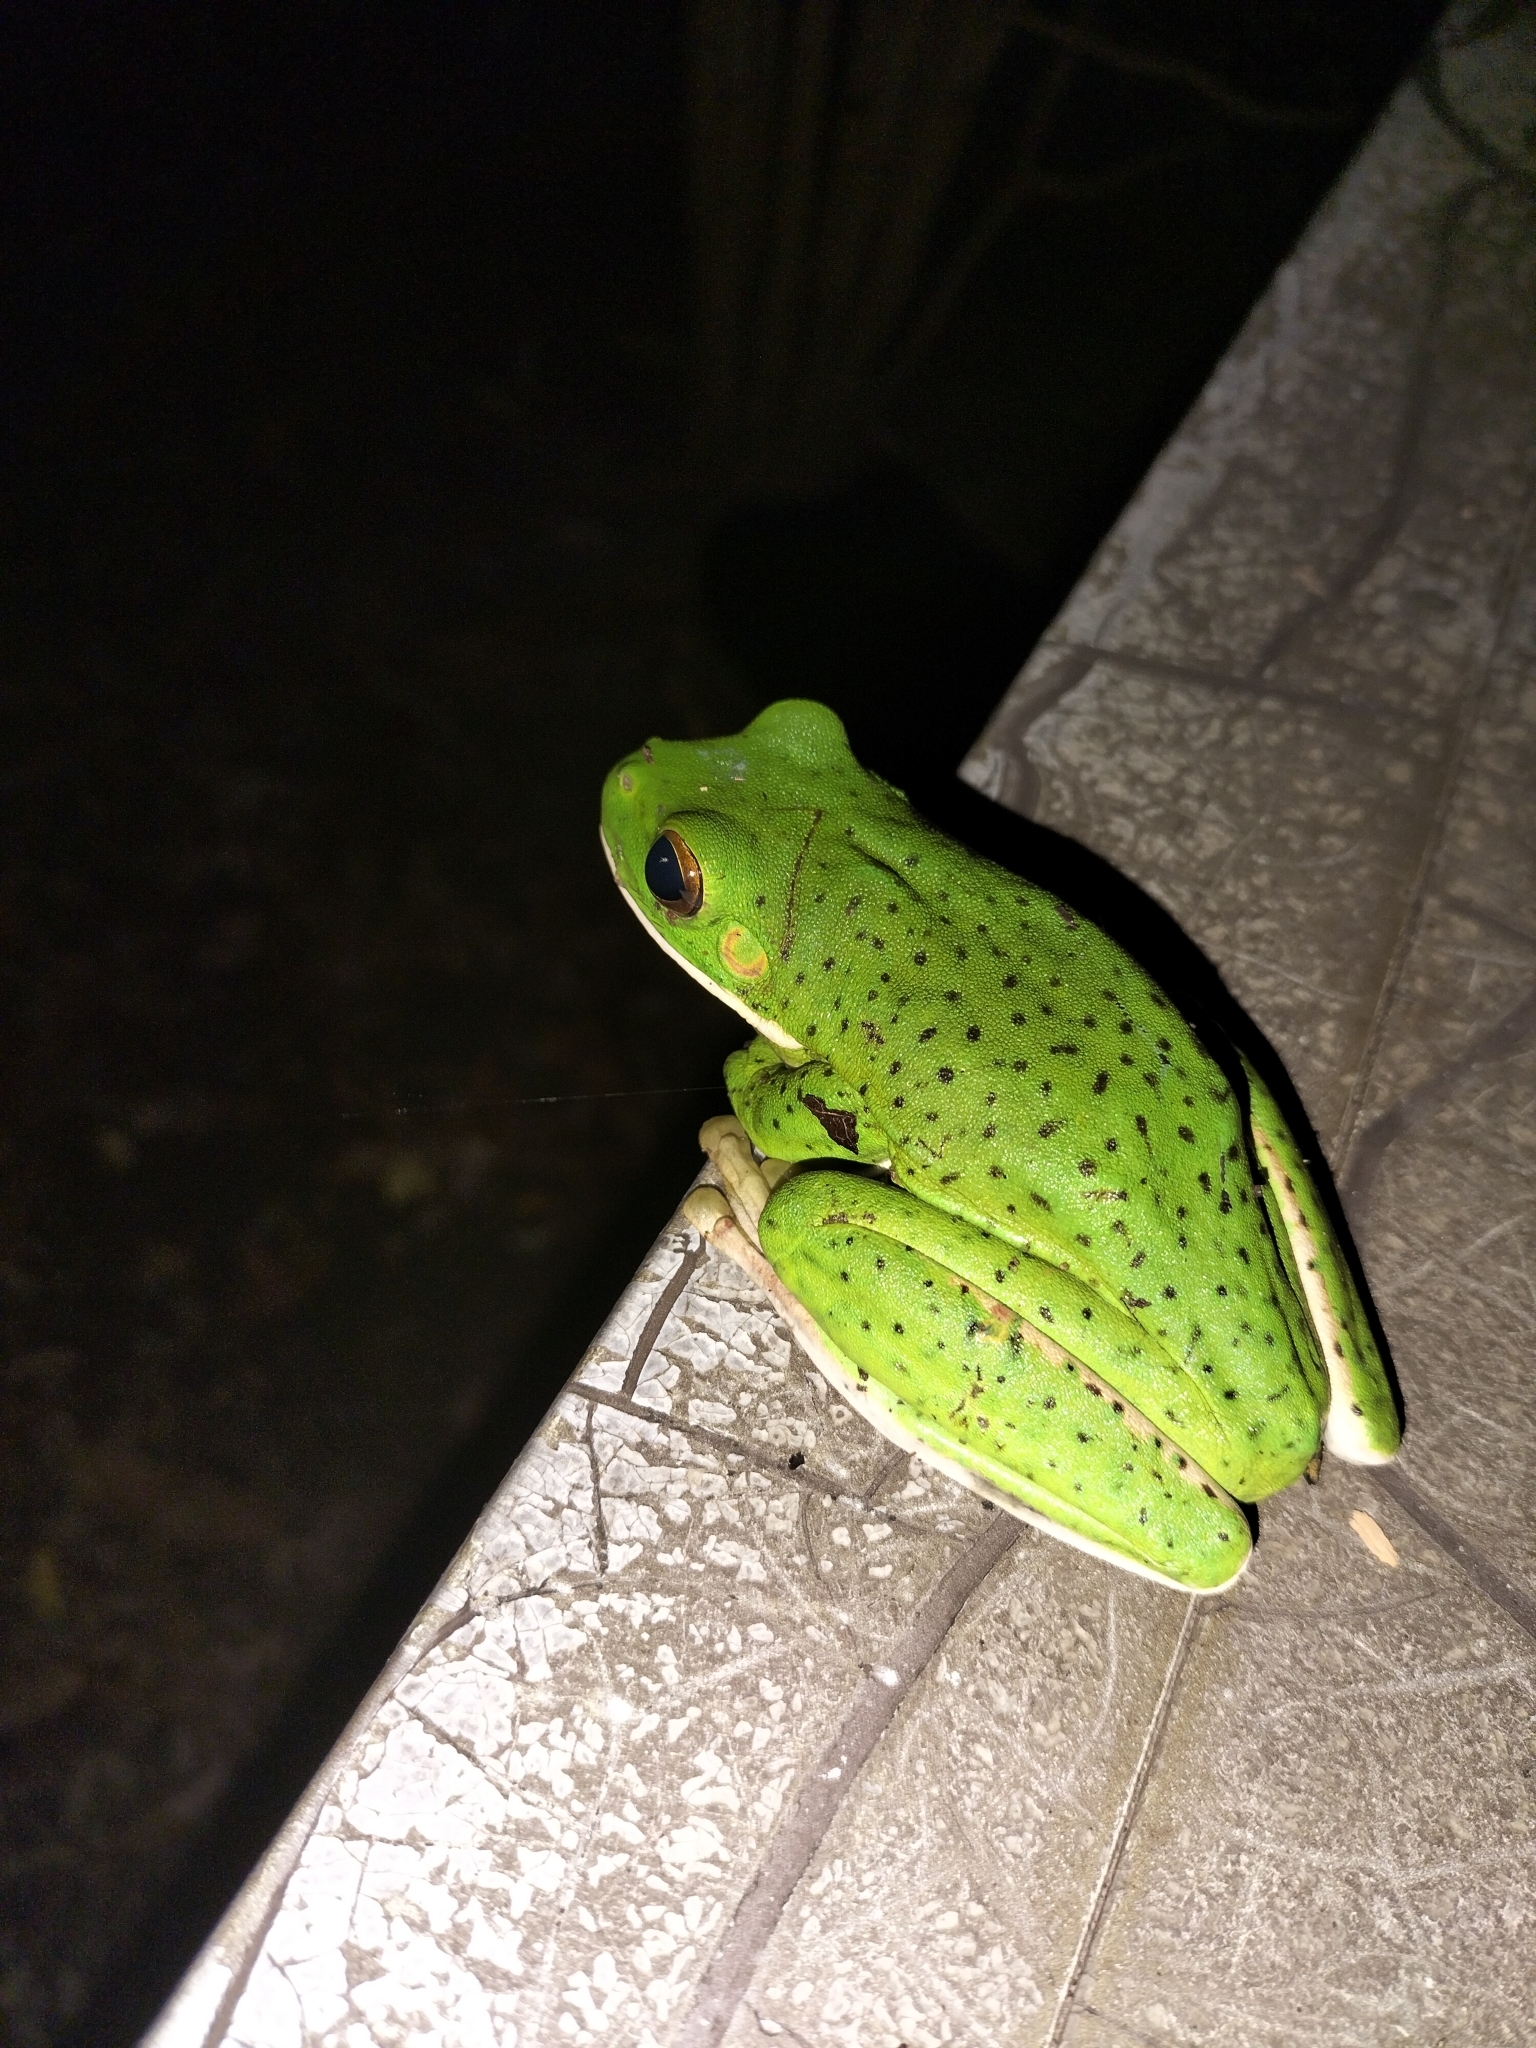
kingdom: Animalia
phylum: Chordata
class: Amphibia
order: Anura
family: Pelodryadidae
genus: Nyctimystes
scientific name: Nyctimystes infrafrenatus
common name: Australian giant treefrog
